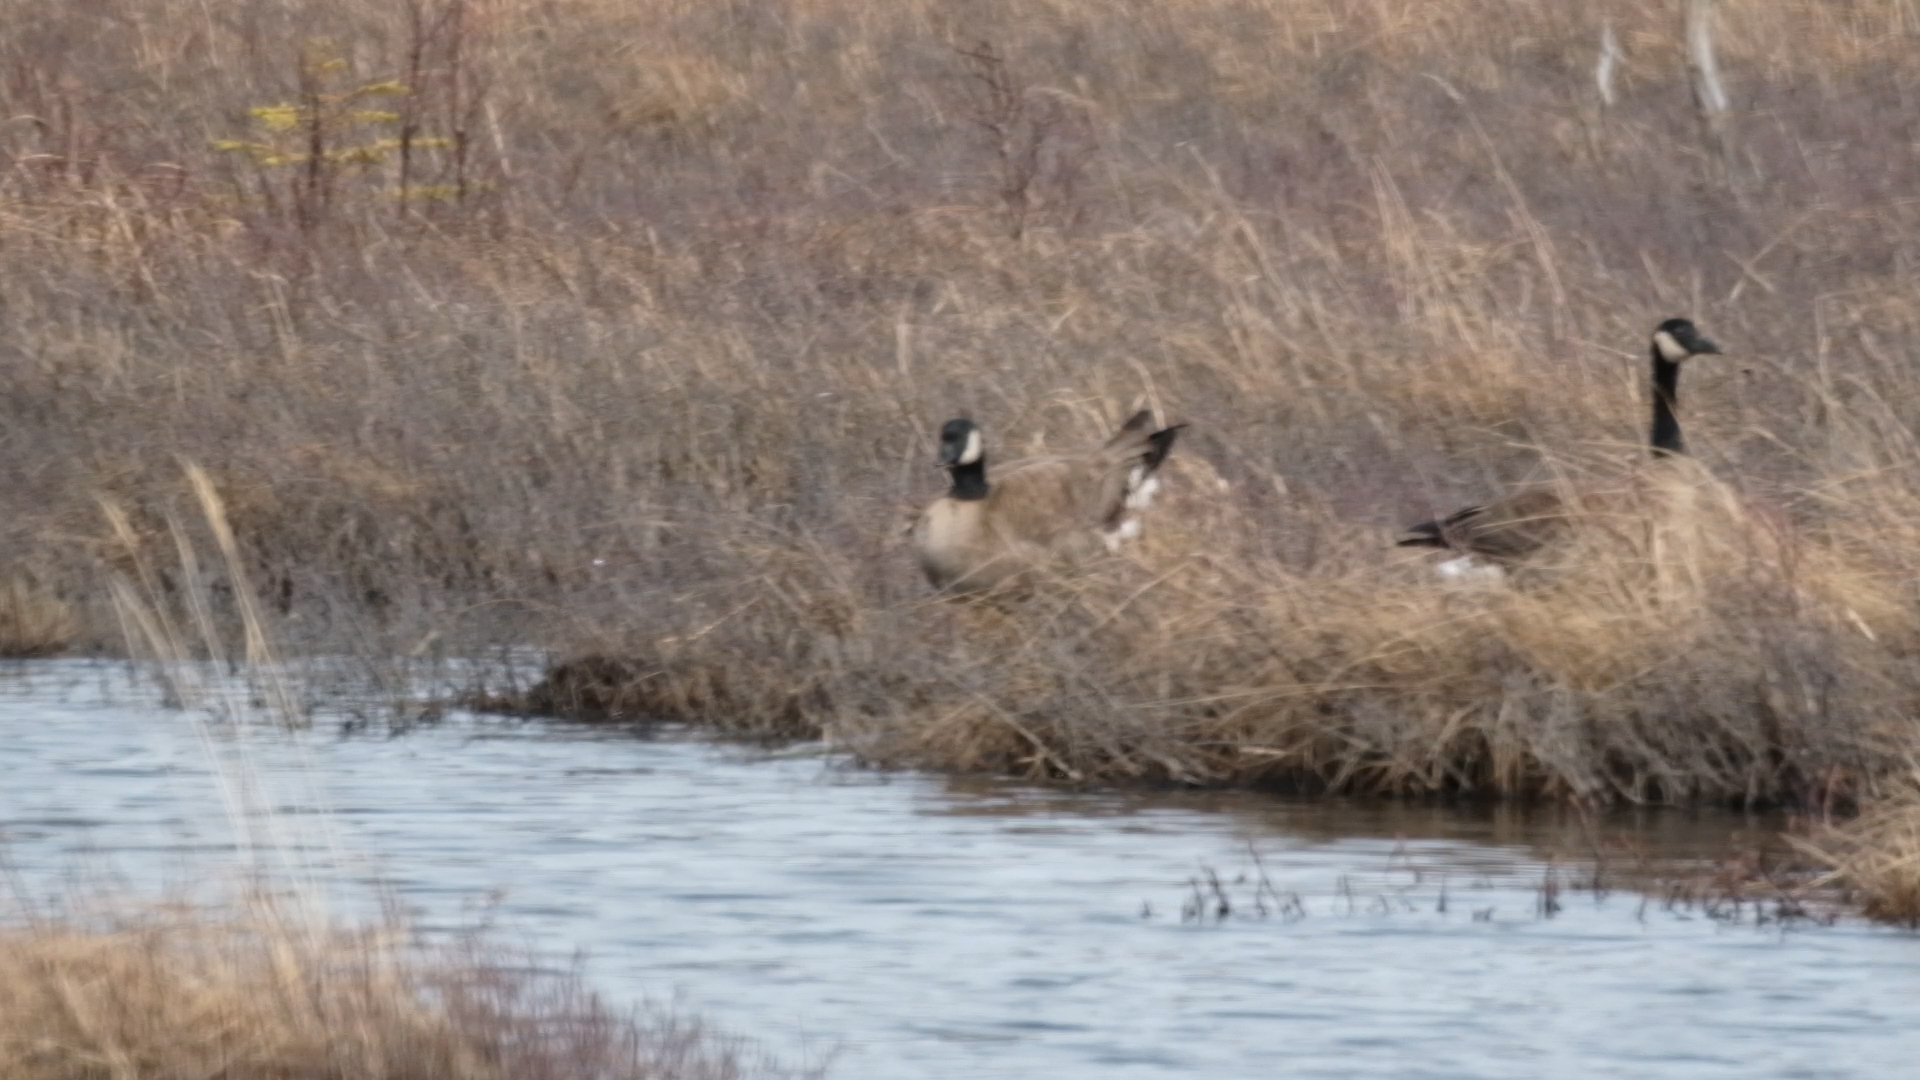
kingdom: Animalia
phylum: Chordata
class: Aves
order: Anseriformes
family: Anatidae
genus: Branta
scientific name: Branta canadensis
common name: Canada goose
